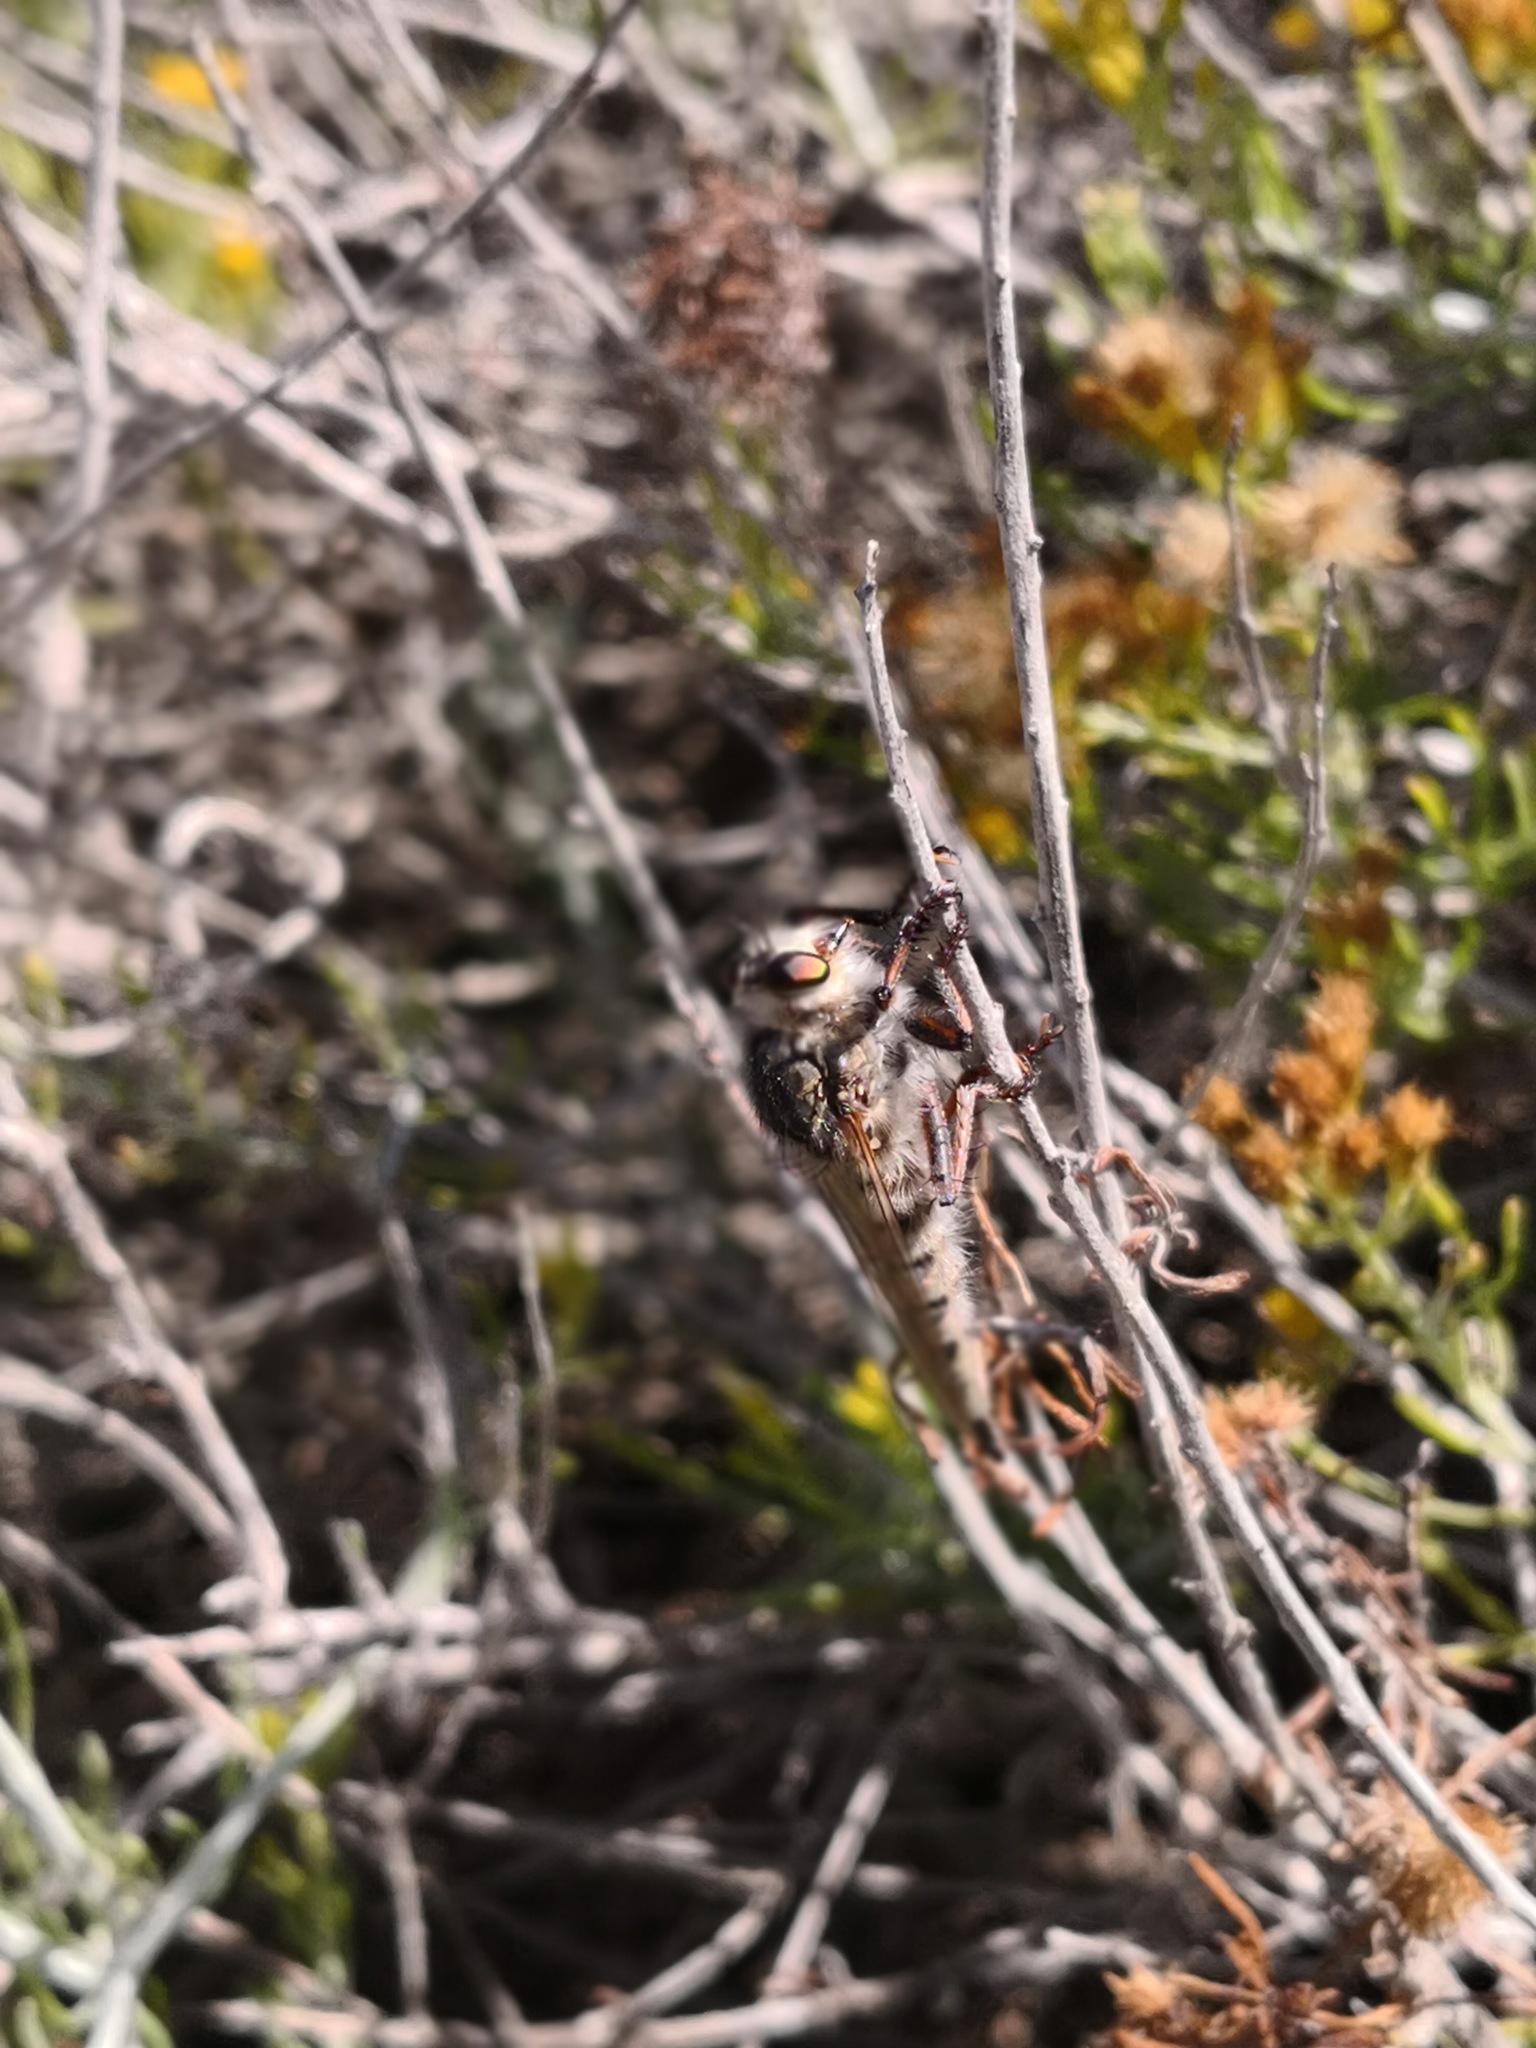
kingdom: Animalia
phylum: Arthropoda
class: Insecta
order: Diptera
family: Asilidae
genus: Promachus
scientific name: Promachus latitarsatus
